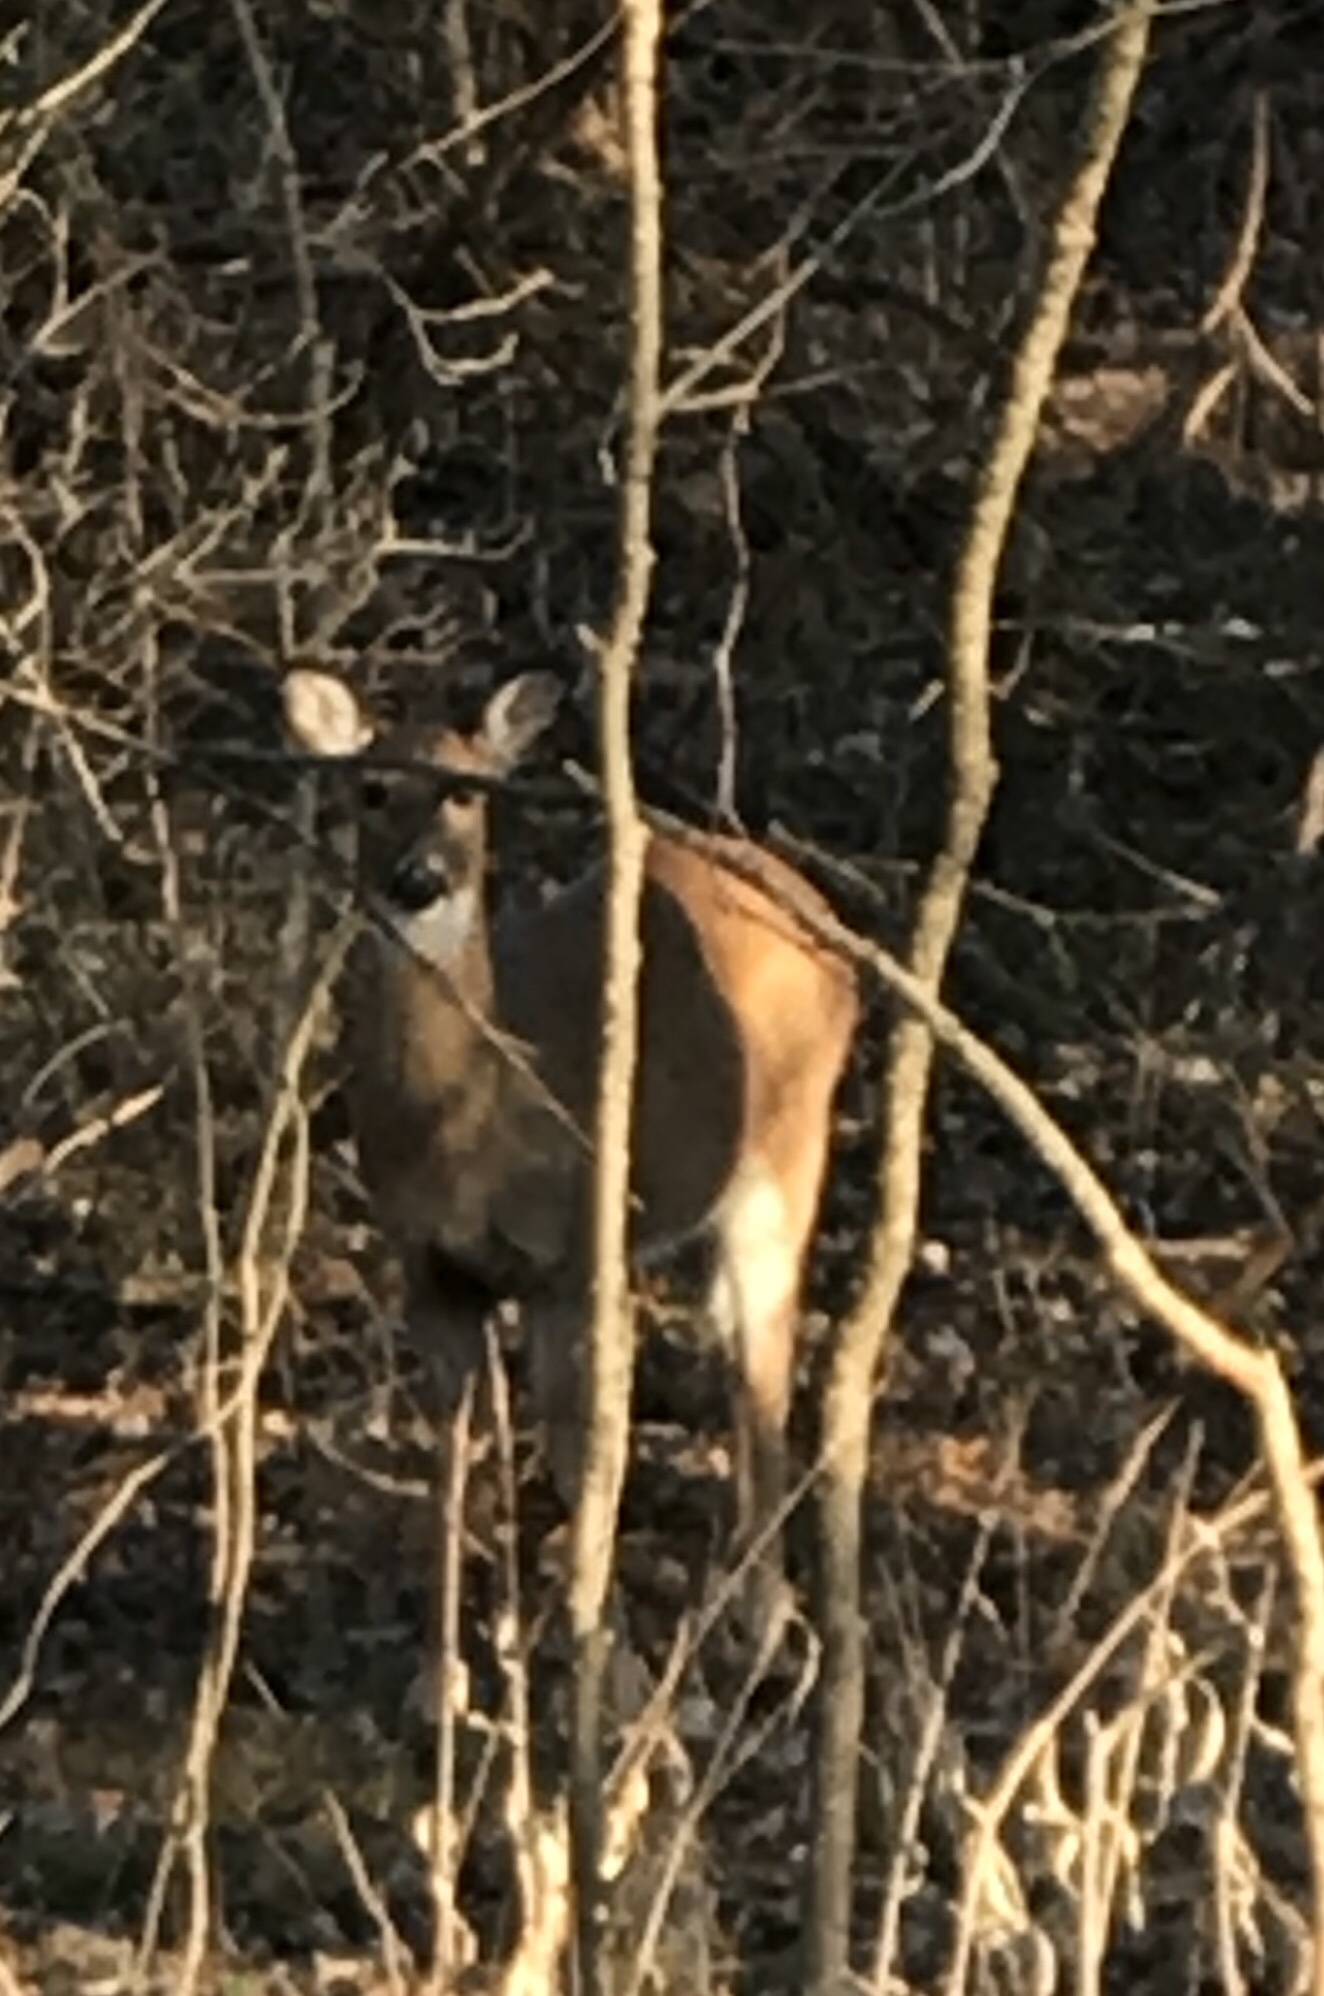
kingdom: Animalia
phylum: Chordata
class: Mammalia
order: Artiodactyla
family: Cervidae
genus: Odocoileus
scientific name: Odocoileus virginianus
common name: White-tailed deer
